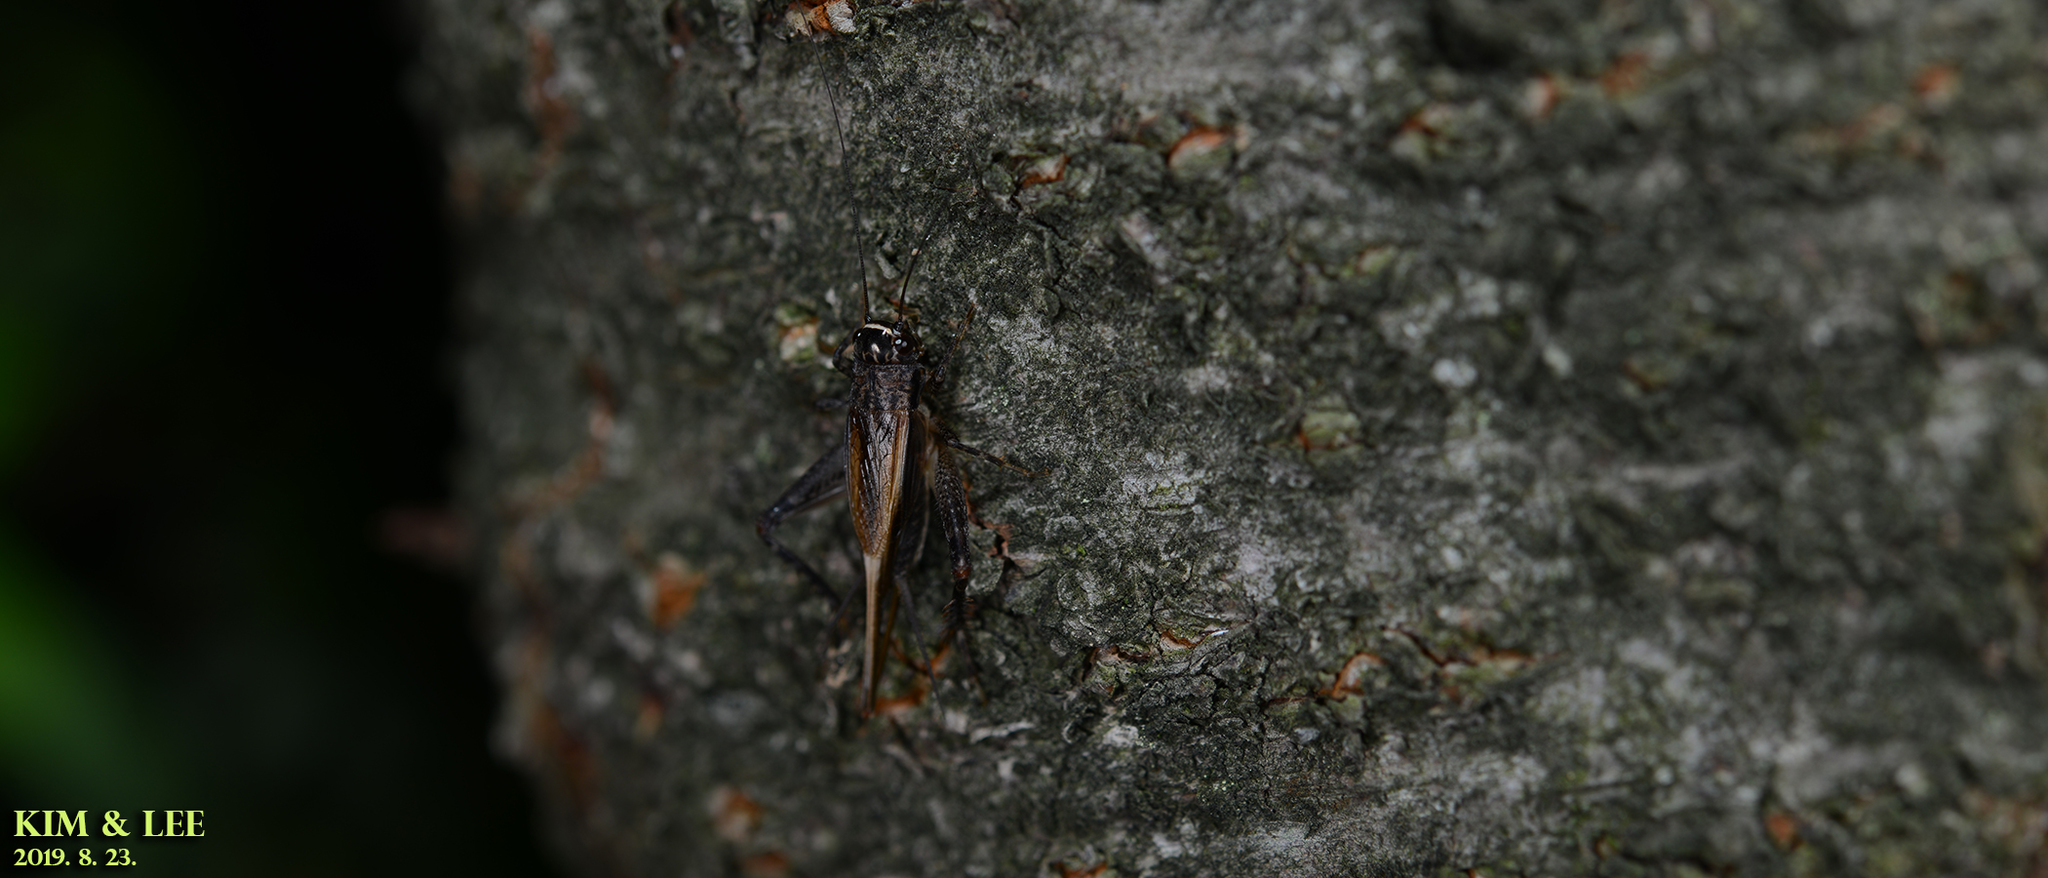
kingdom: Animalia
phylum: Arthropoda
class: Insecta
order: Orthoptera
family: Gryllidae
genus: Loxoblemmus
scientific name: Loxoblemmus arietulus
